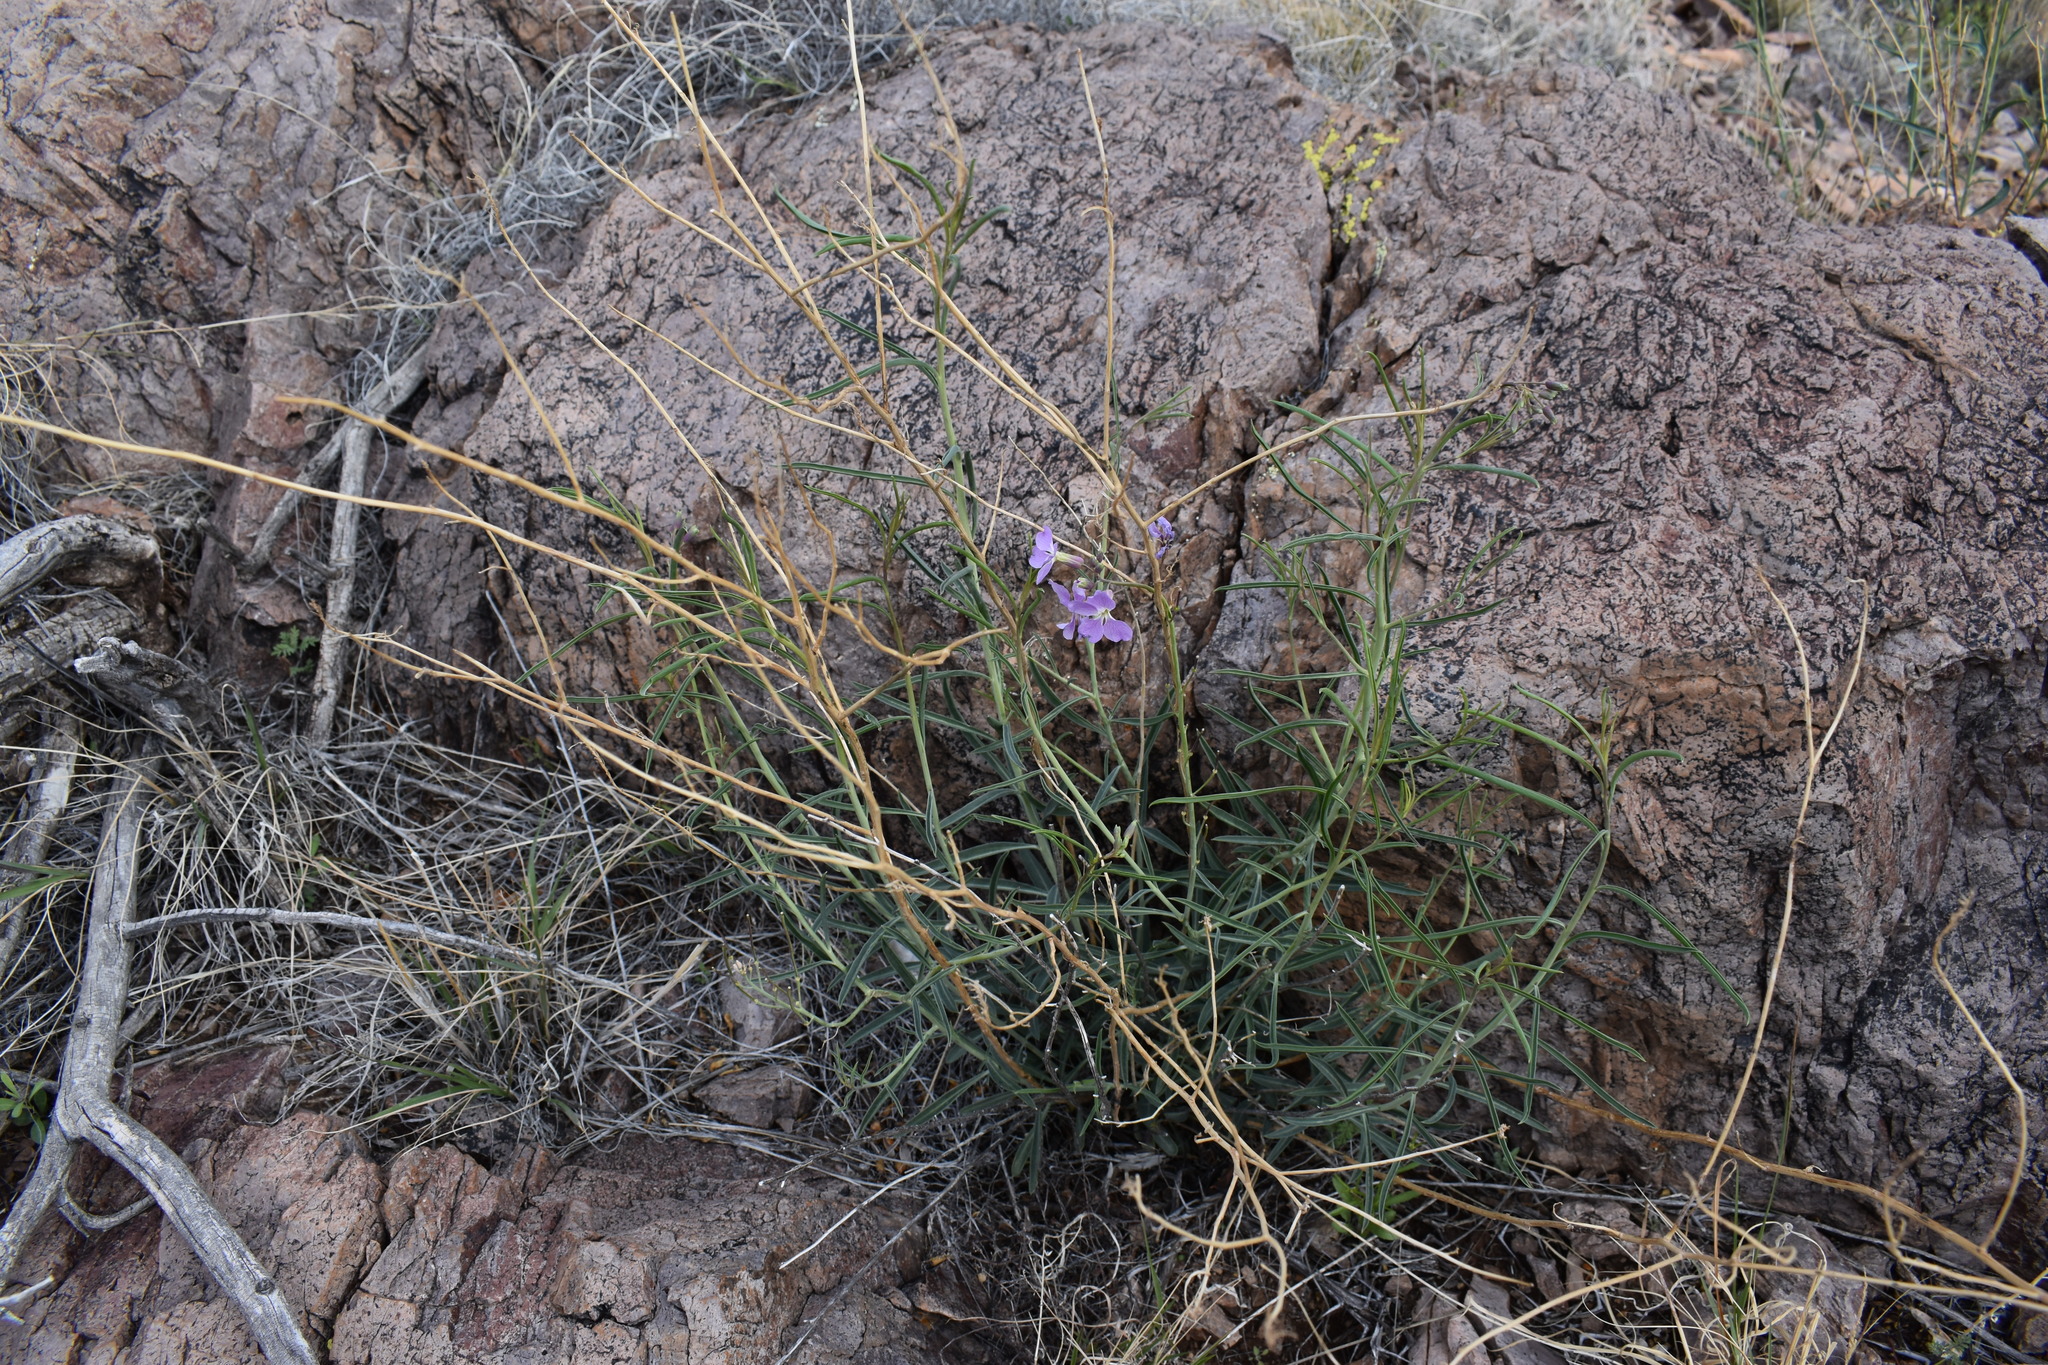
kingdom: Plantae
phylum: Tracheophyta
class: Magnoliopsida
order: Brassicales
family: Brassicaceae
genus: Hesperidanthus
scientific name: Hesperidanthus linearifolius
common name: Slim-leaf plains mustard
